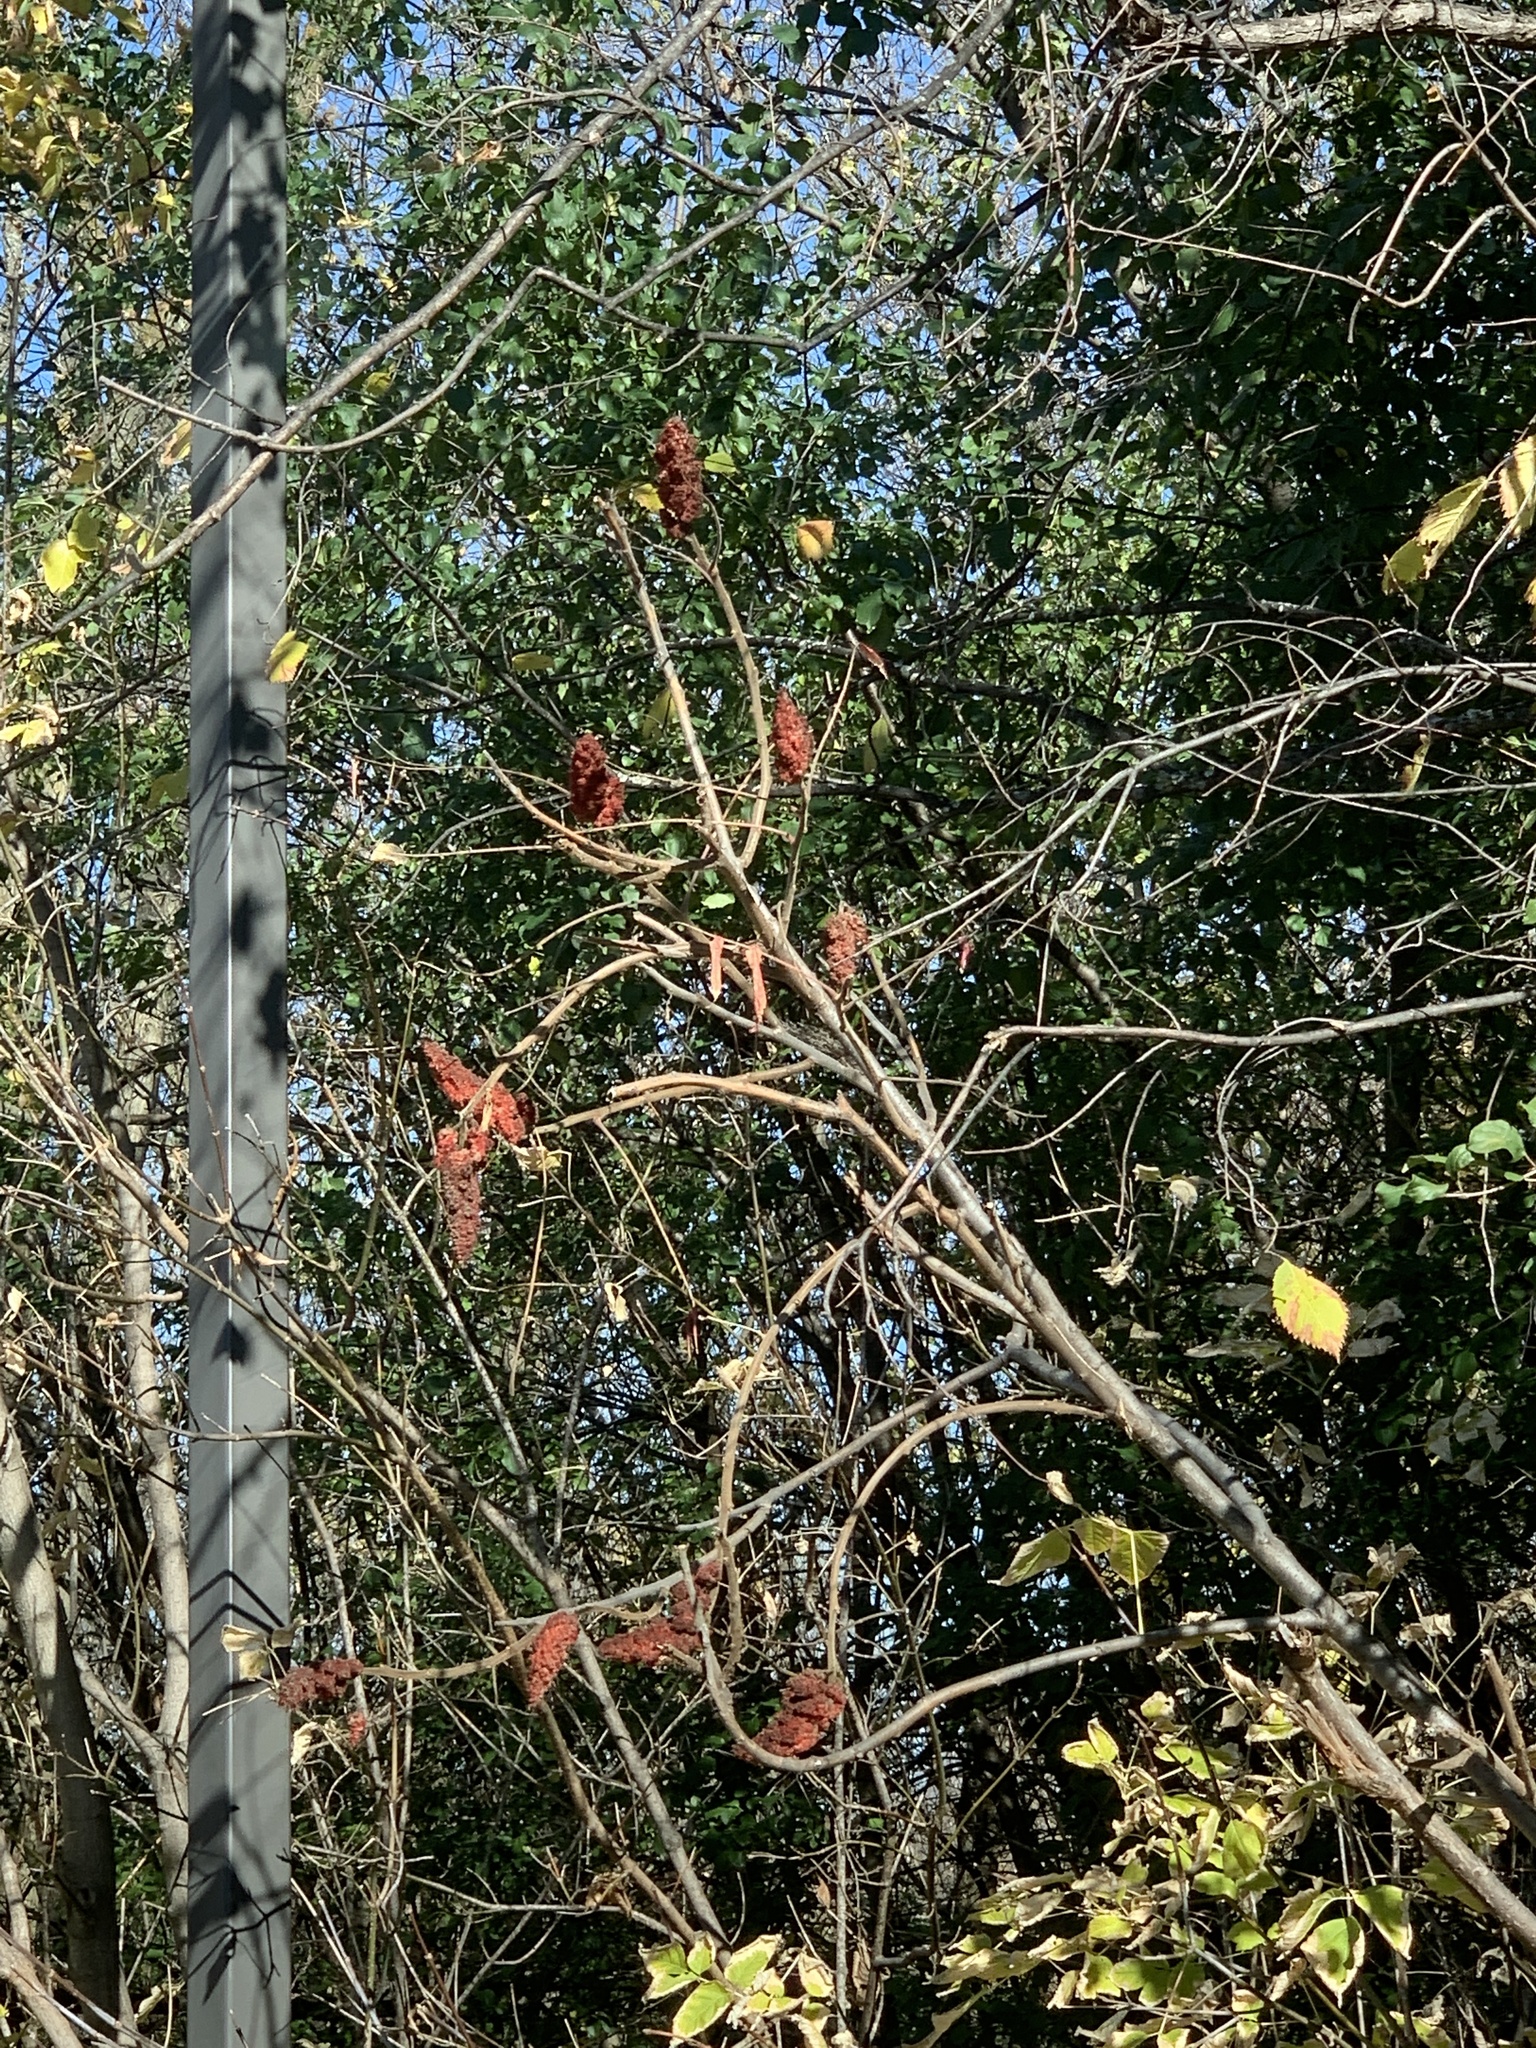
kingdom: Plantae
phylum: Tracheophyta
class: Magnoliopsida
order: Sapindales
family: Anacardiaceae
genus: Rhus
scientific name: Rhus typhina
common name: Staghorn sumac
